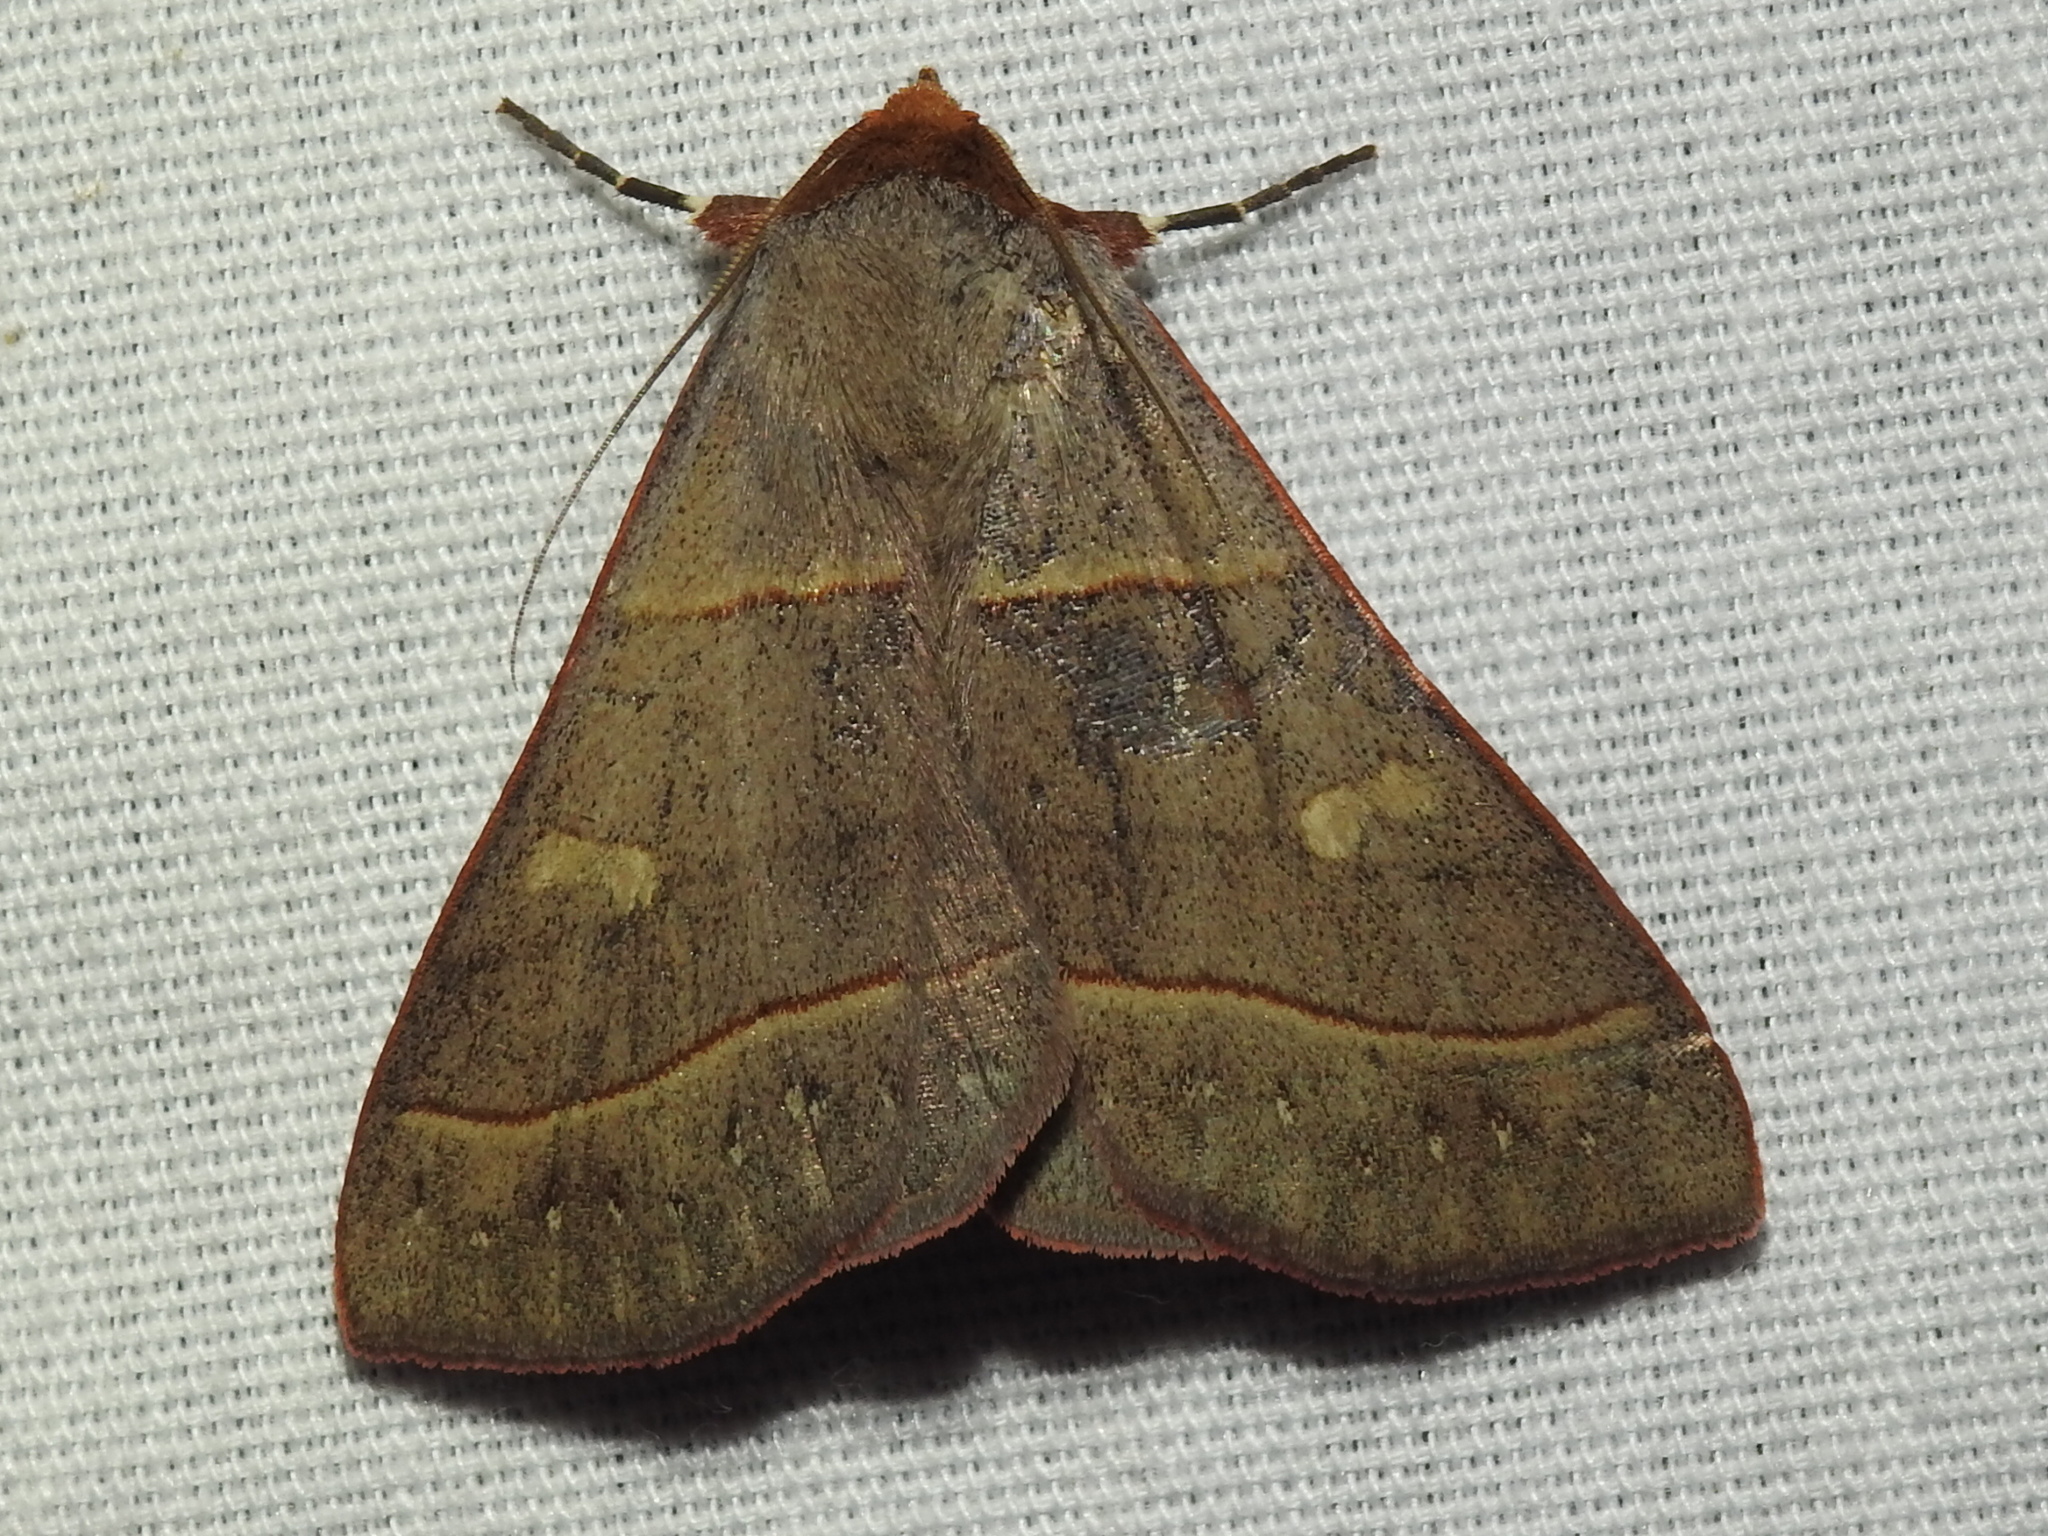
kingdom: Animalia
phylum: Arthropoda
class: Insecta
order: Lepidoptera
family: Erebidae
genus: Panopoda
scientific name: Panopoda rufimargo
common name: Red-lined panopoda moth
